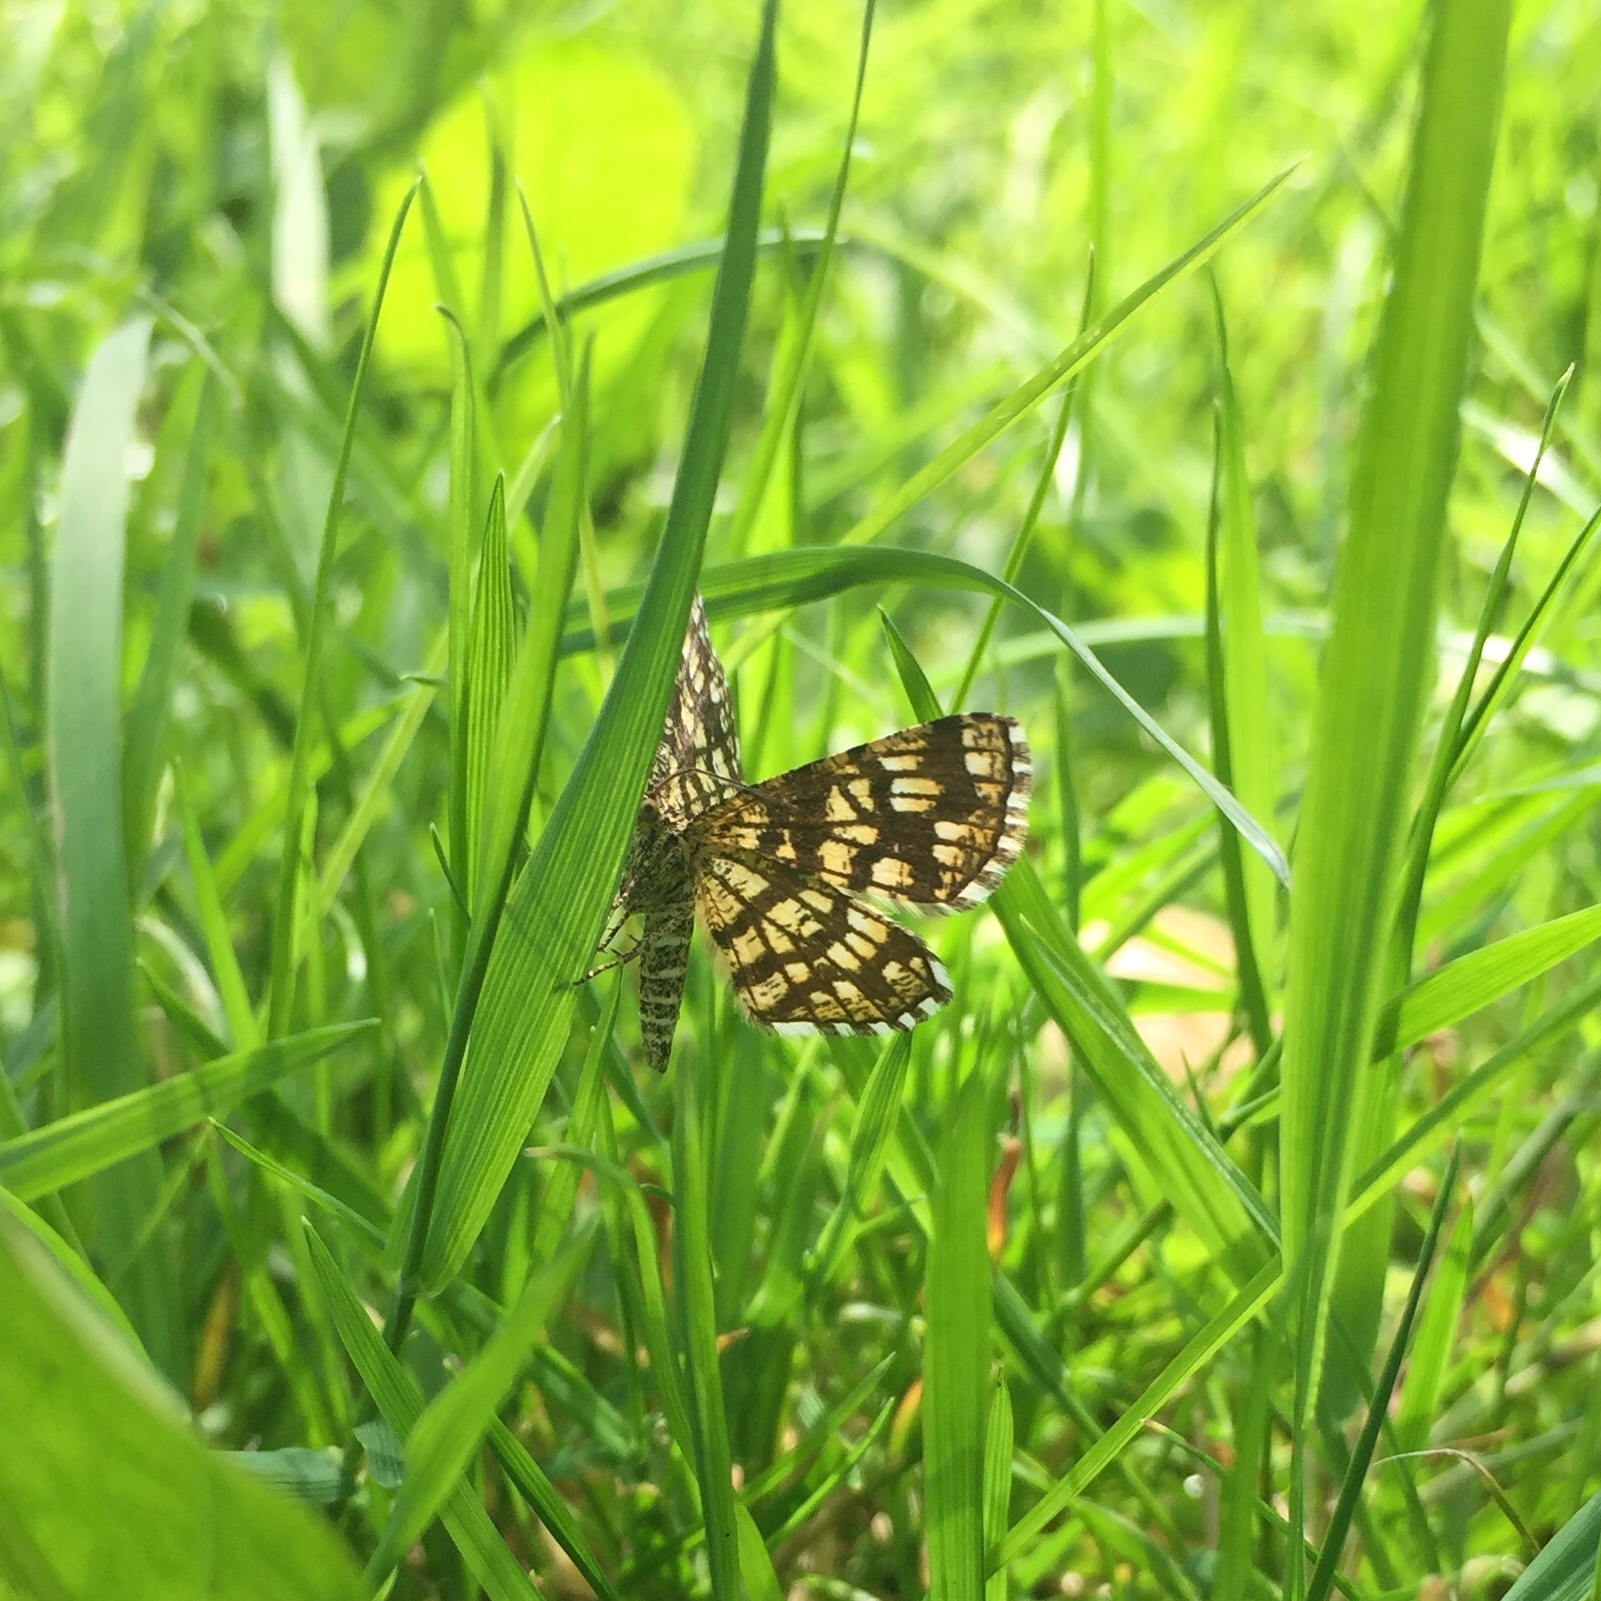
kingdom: Animalia
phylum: Arthropoda
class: Insecta
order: Lepidoptera
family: Geometridae
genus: Chiasmia
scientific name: Chiasmia clathrata
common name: Latticed heath
